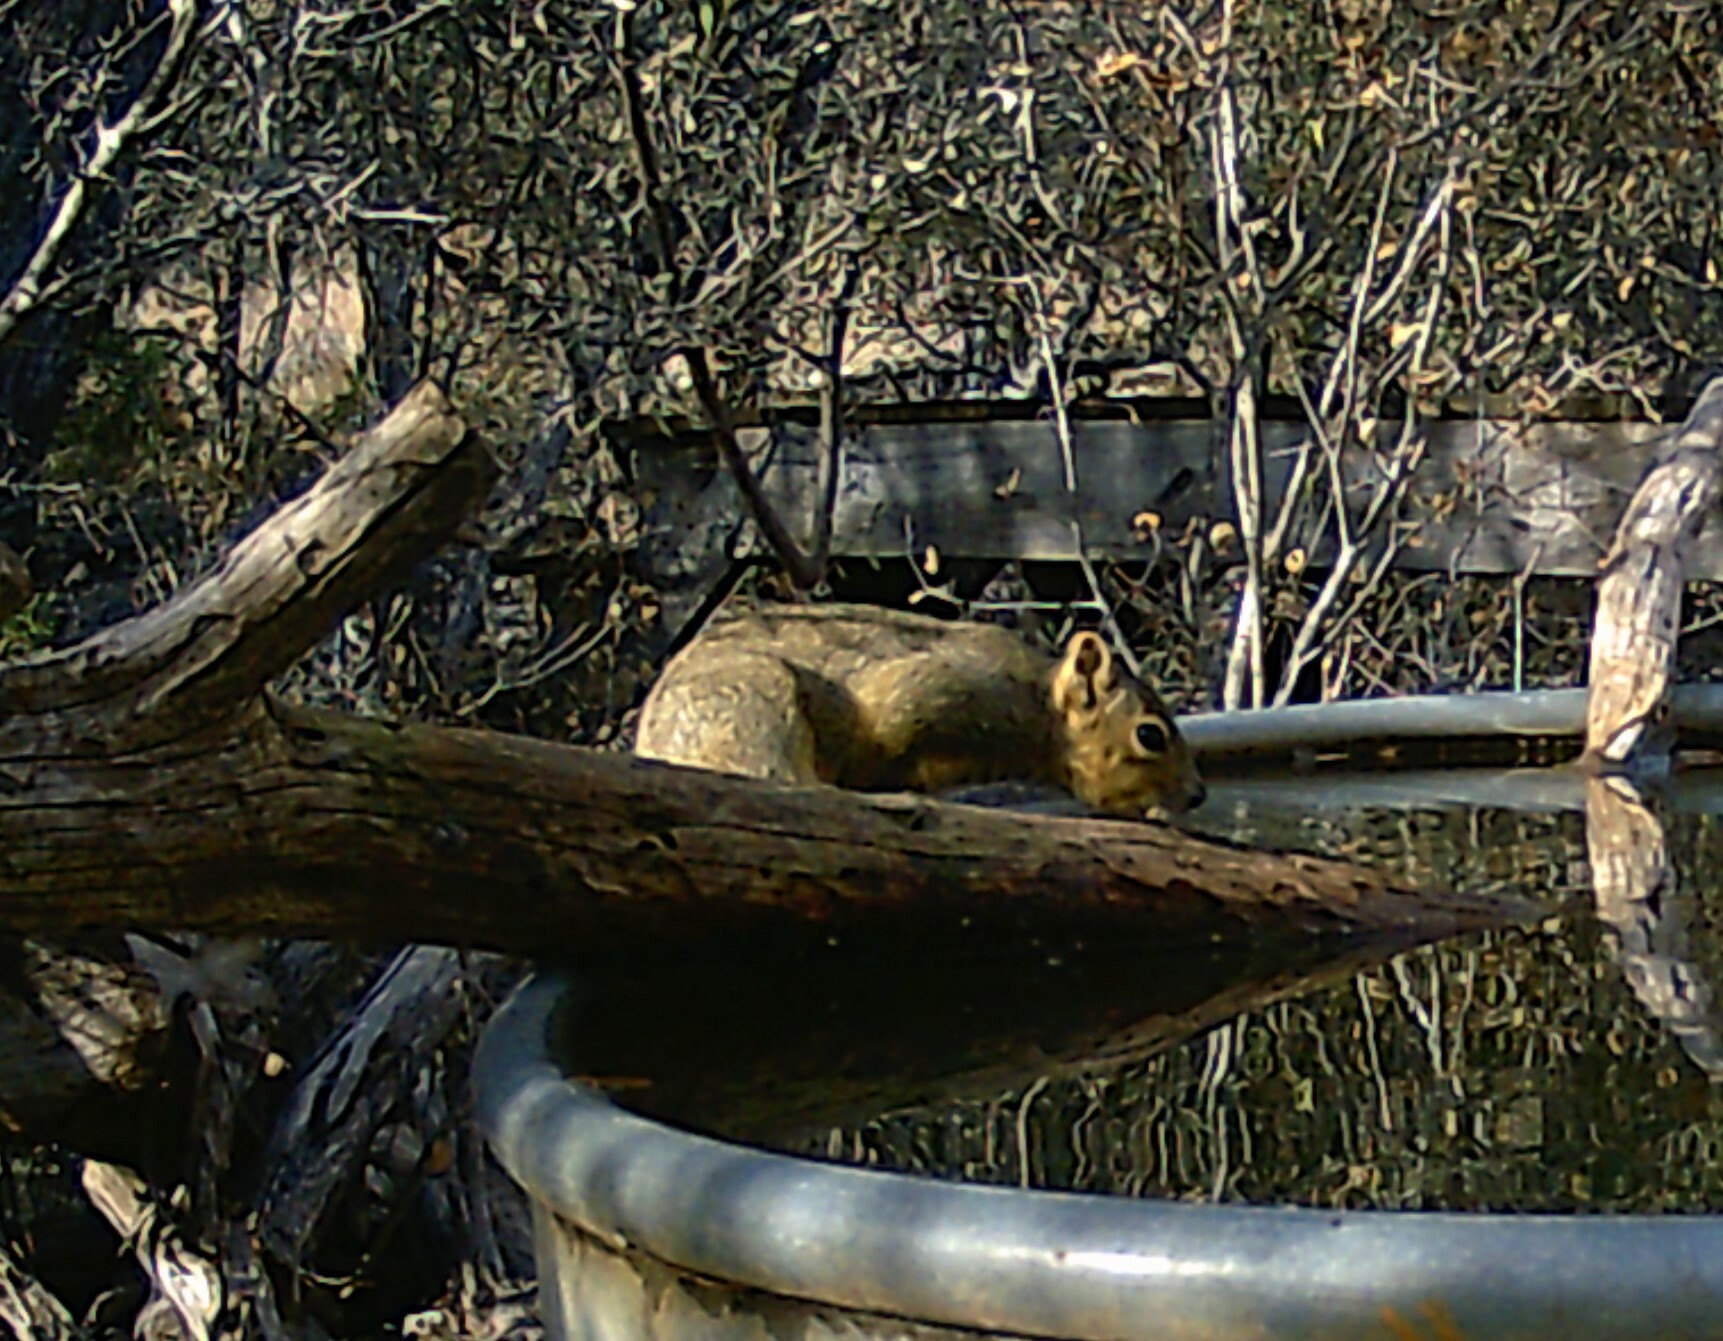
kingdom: Animalia
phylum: Chordata
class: Mammalia
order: Rodentia
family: Sciuridae
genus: Sciurus
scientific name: Sciurus niger
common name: Fox squirrel
